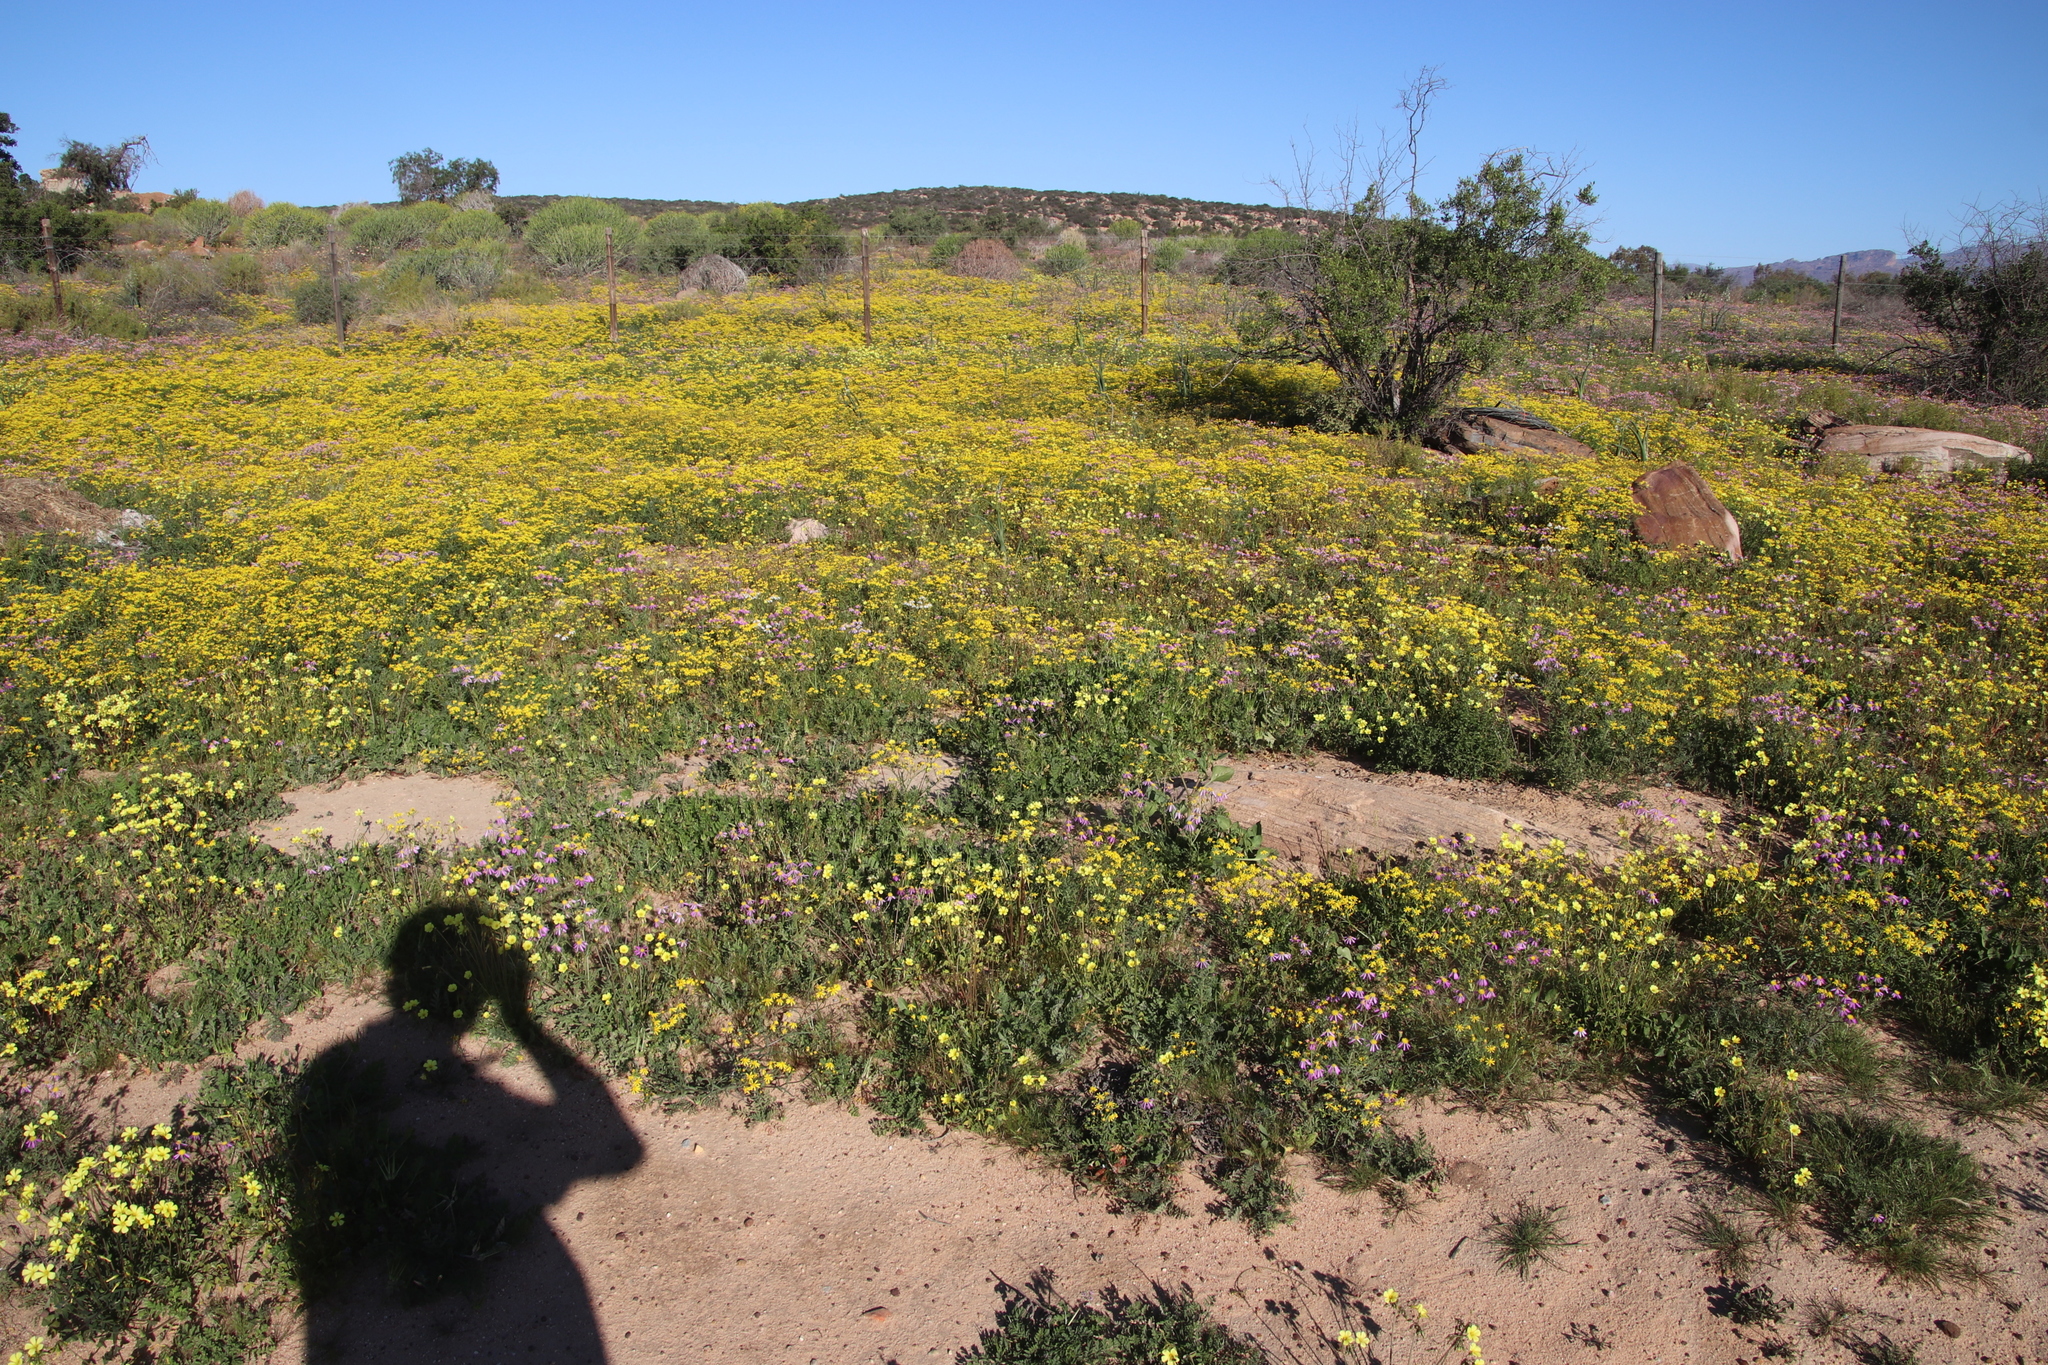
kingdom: Plantae
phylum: Tracheophyta
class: Magnoliopsida
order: Asterales
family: Asteraceae
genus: Senecio
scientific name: Senecio abruptus
